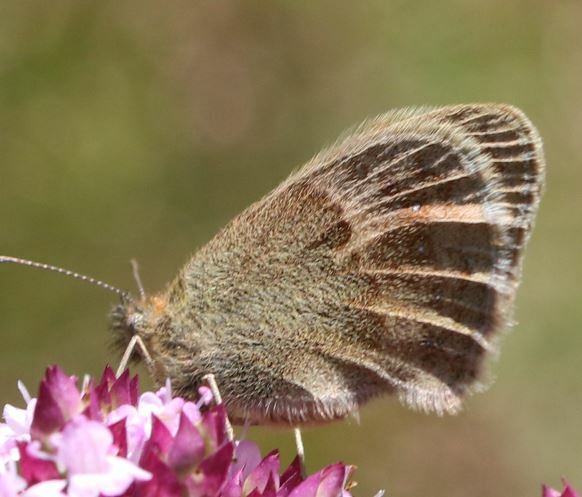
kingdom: Animalia
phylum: Arthropoda
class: Insecta
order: Lepidoptera
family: Nymphalidae
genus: Coenonympha
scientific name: Coenonympha pamphilus
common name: Small heath
